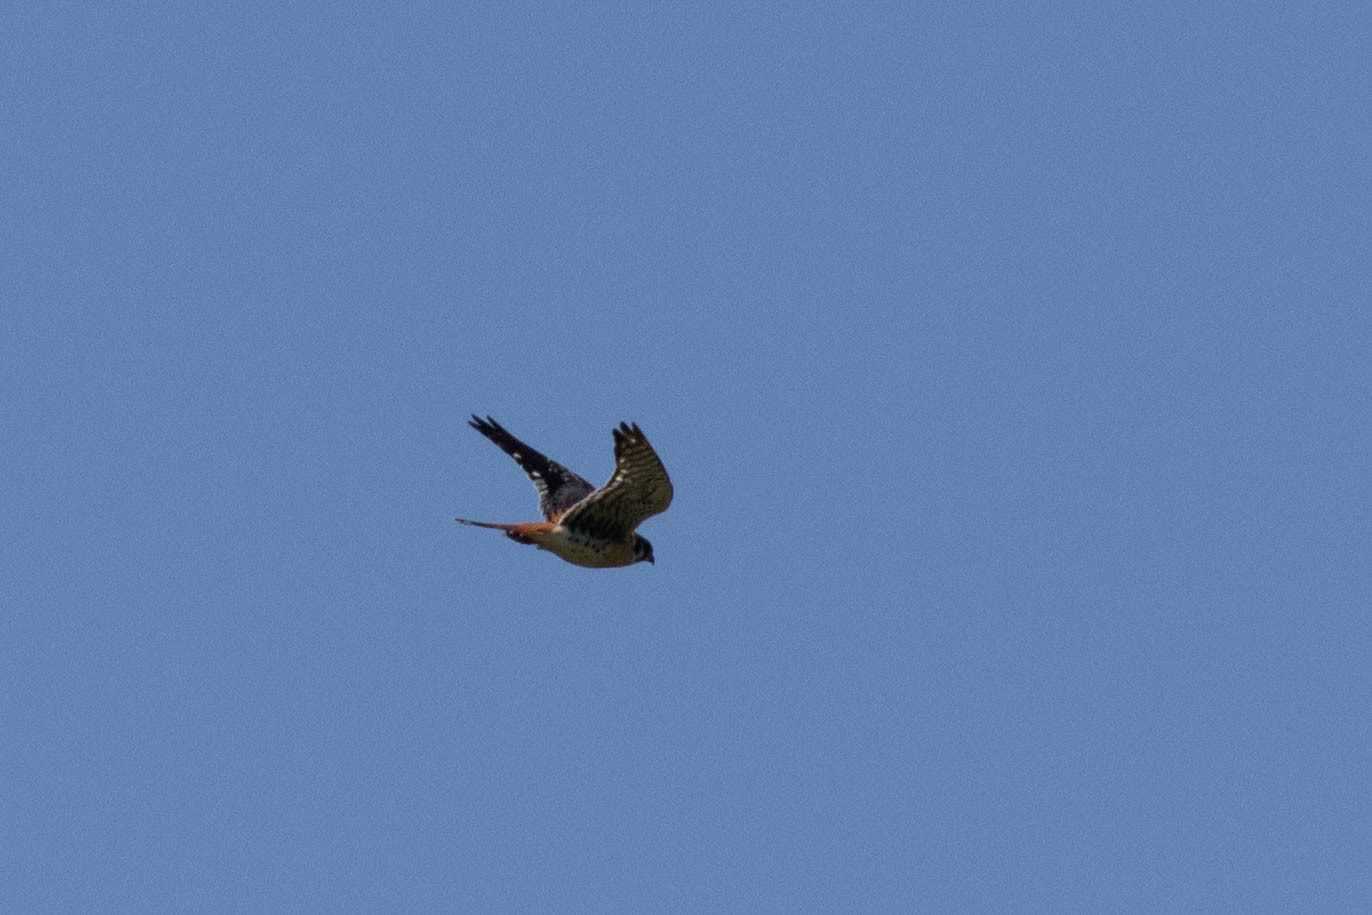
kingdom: Animalia
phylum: Chordata
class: Aves
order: Falconiformes
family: Falconidae
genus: Falco
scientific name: Falco sparverius
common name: American kestrel
